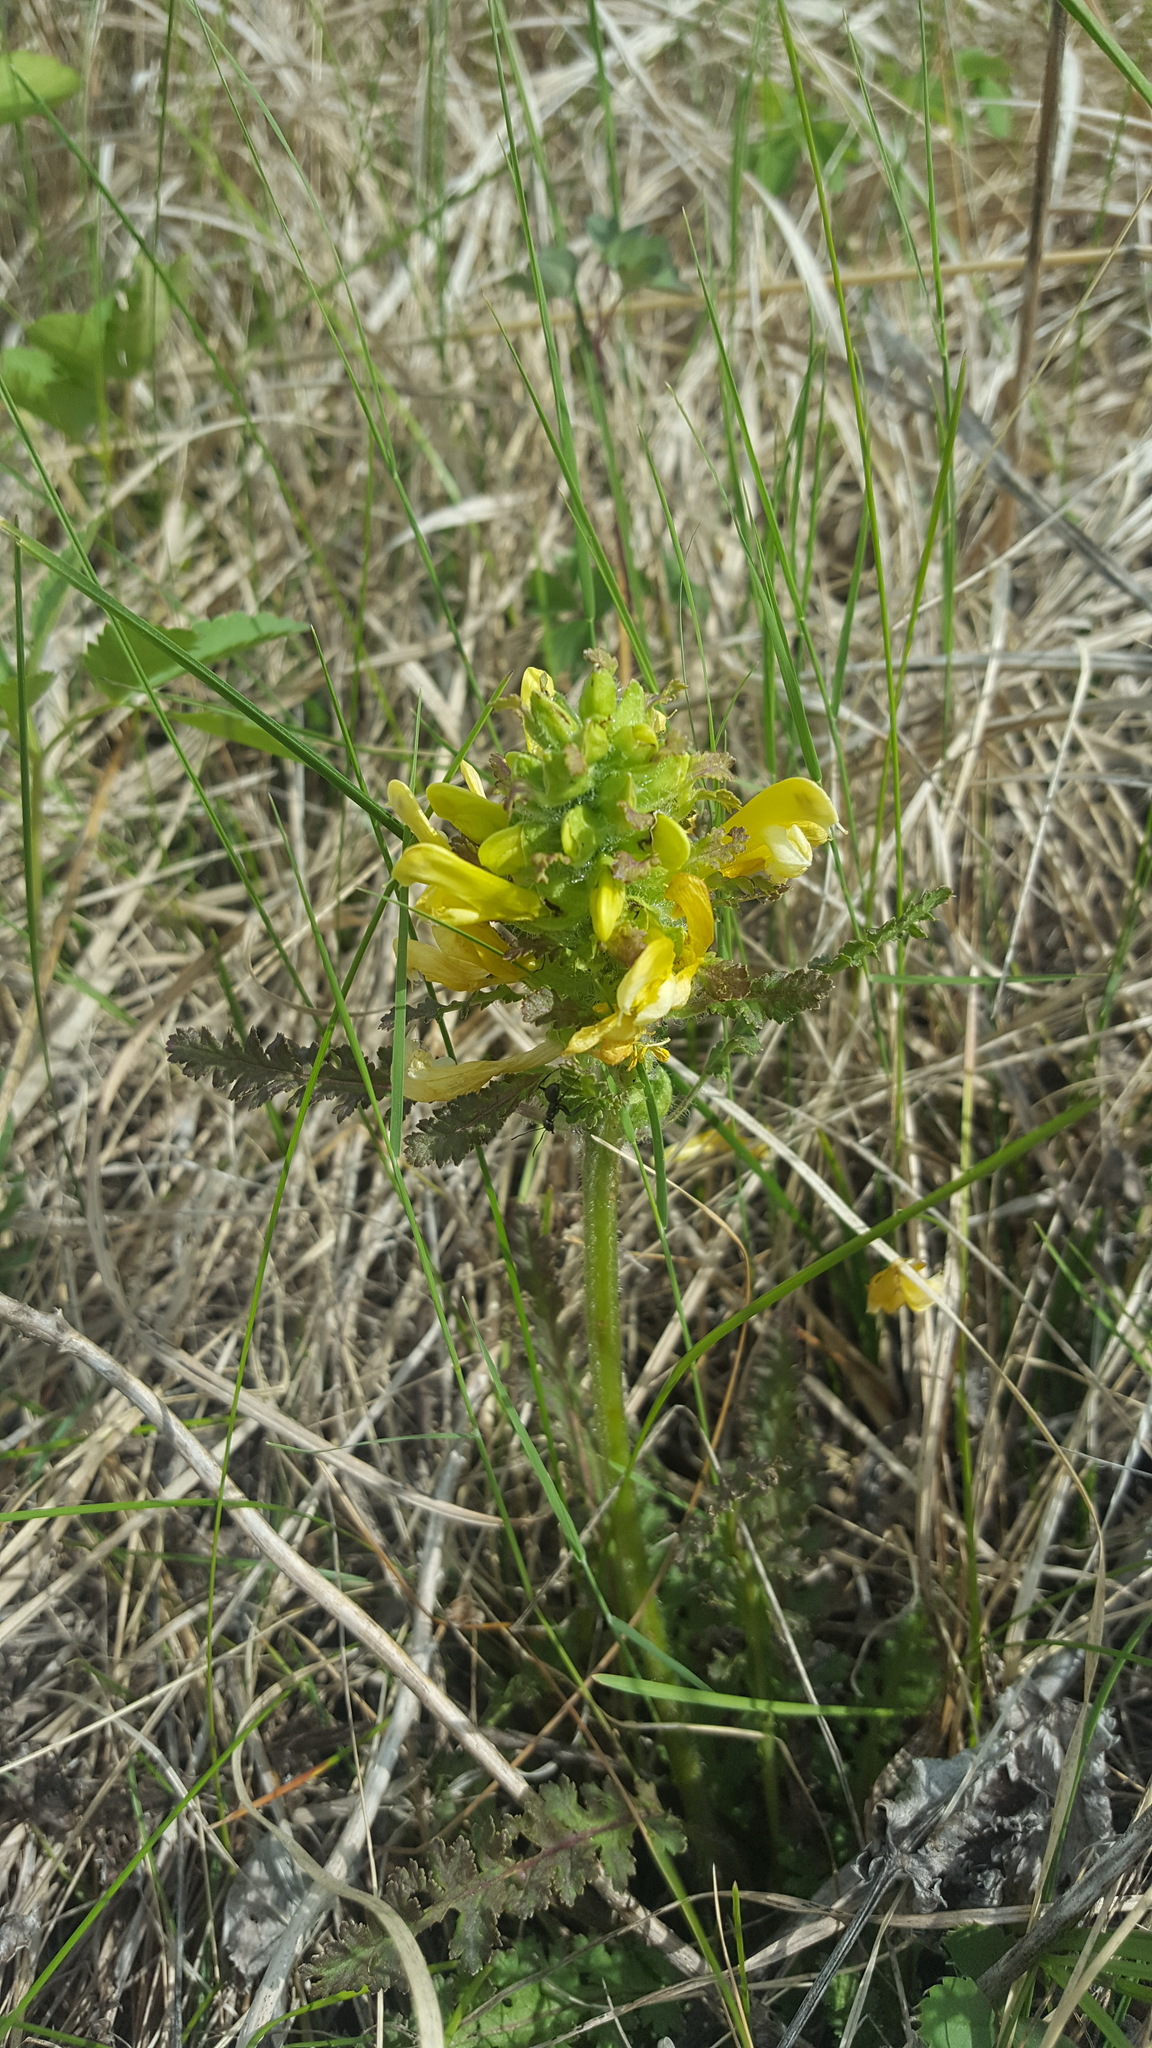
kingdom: Plantae
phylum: Tracheophyta
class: Magnoliopsida
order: Lamiales
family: Orobanchaceae
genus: Pedicularis
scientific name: Pedicularis canadensis
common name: Early lousewort
